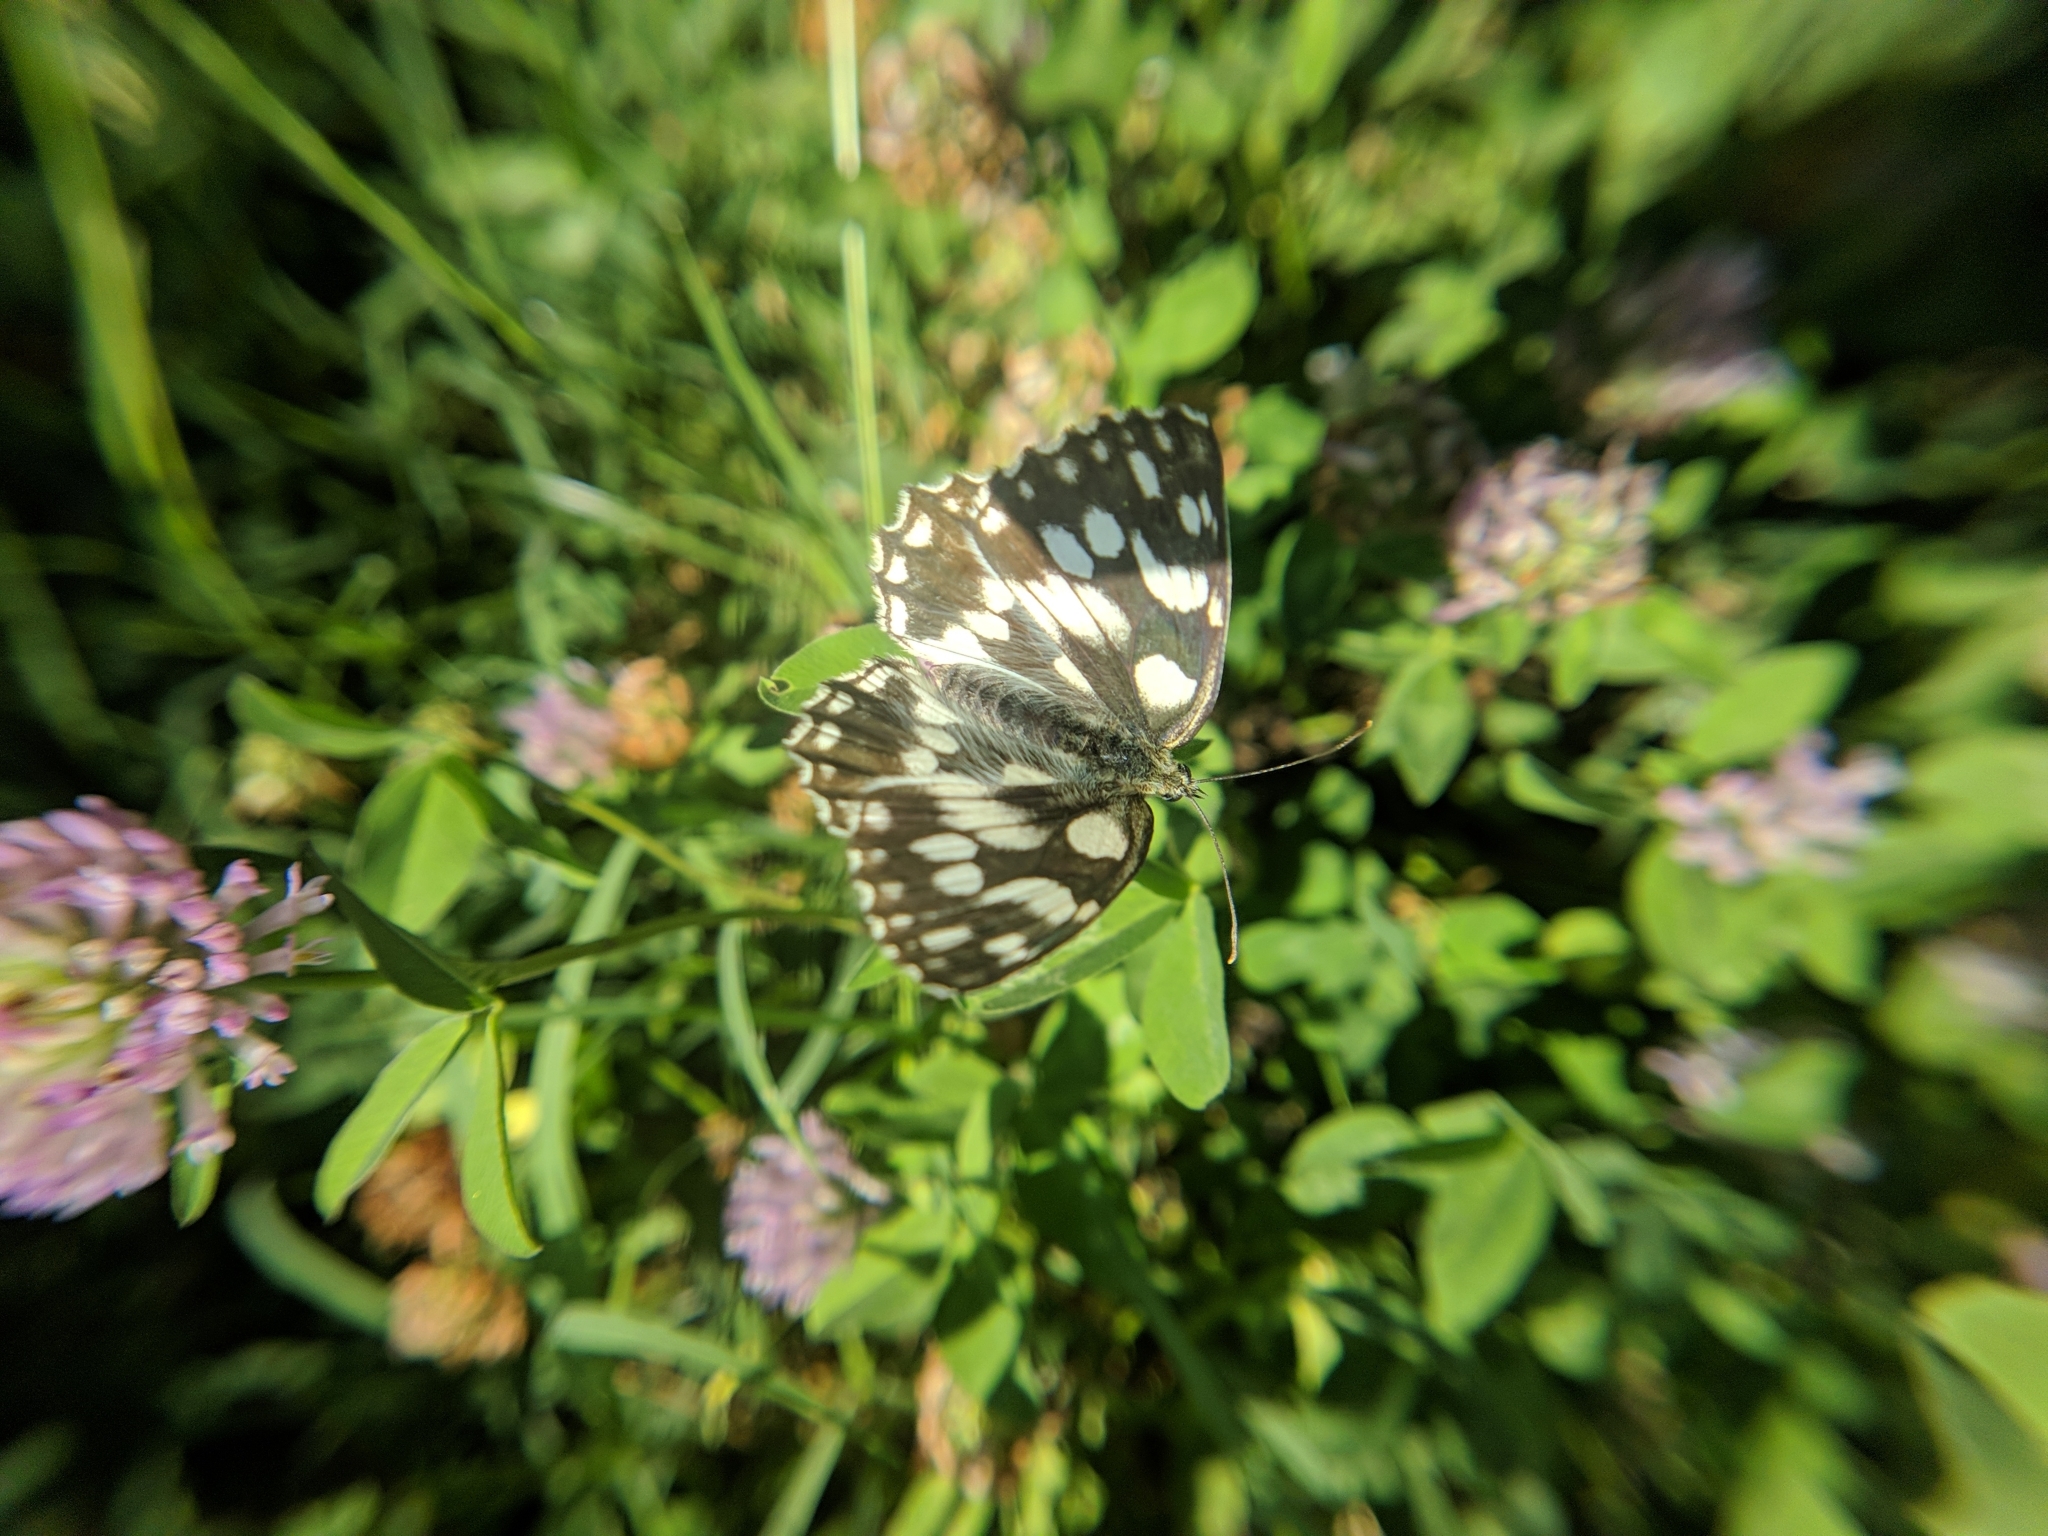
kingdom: Animalia
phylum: Arthropoda
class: Insecta
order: Lepidoptera
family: Nymphalidae
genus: Melanargia
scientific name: Melanargia galathea
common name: Marbled white
